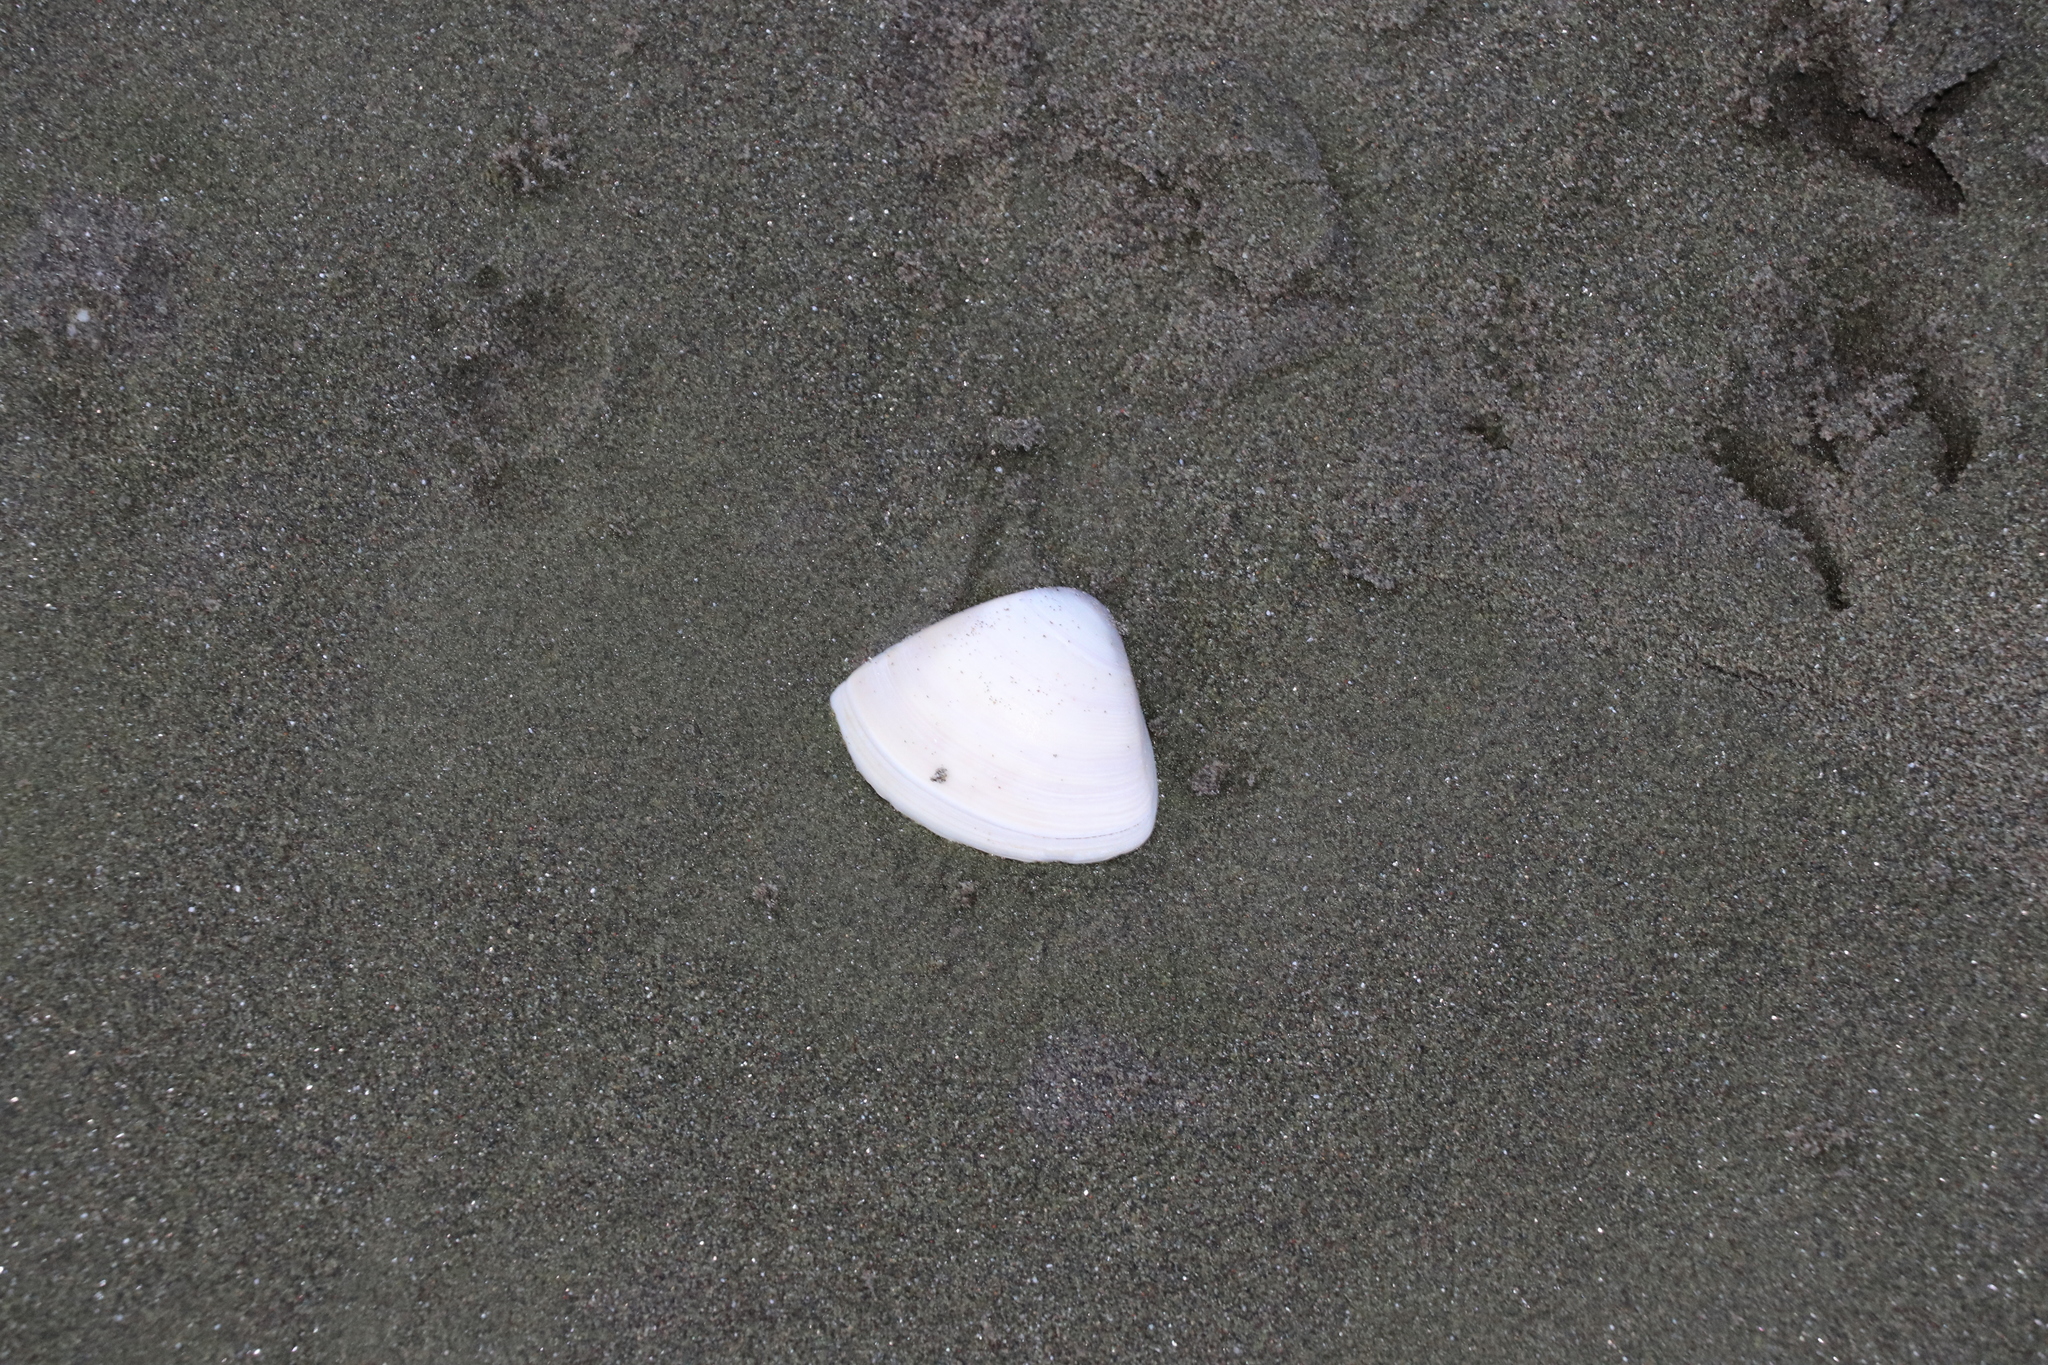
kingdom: Animalia
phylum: Mollusca
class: Bivalvia
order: Venerida
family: Mactridae
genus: Crassula
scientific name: Crassula aequilatera
